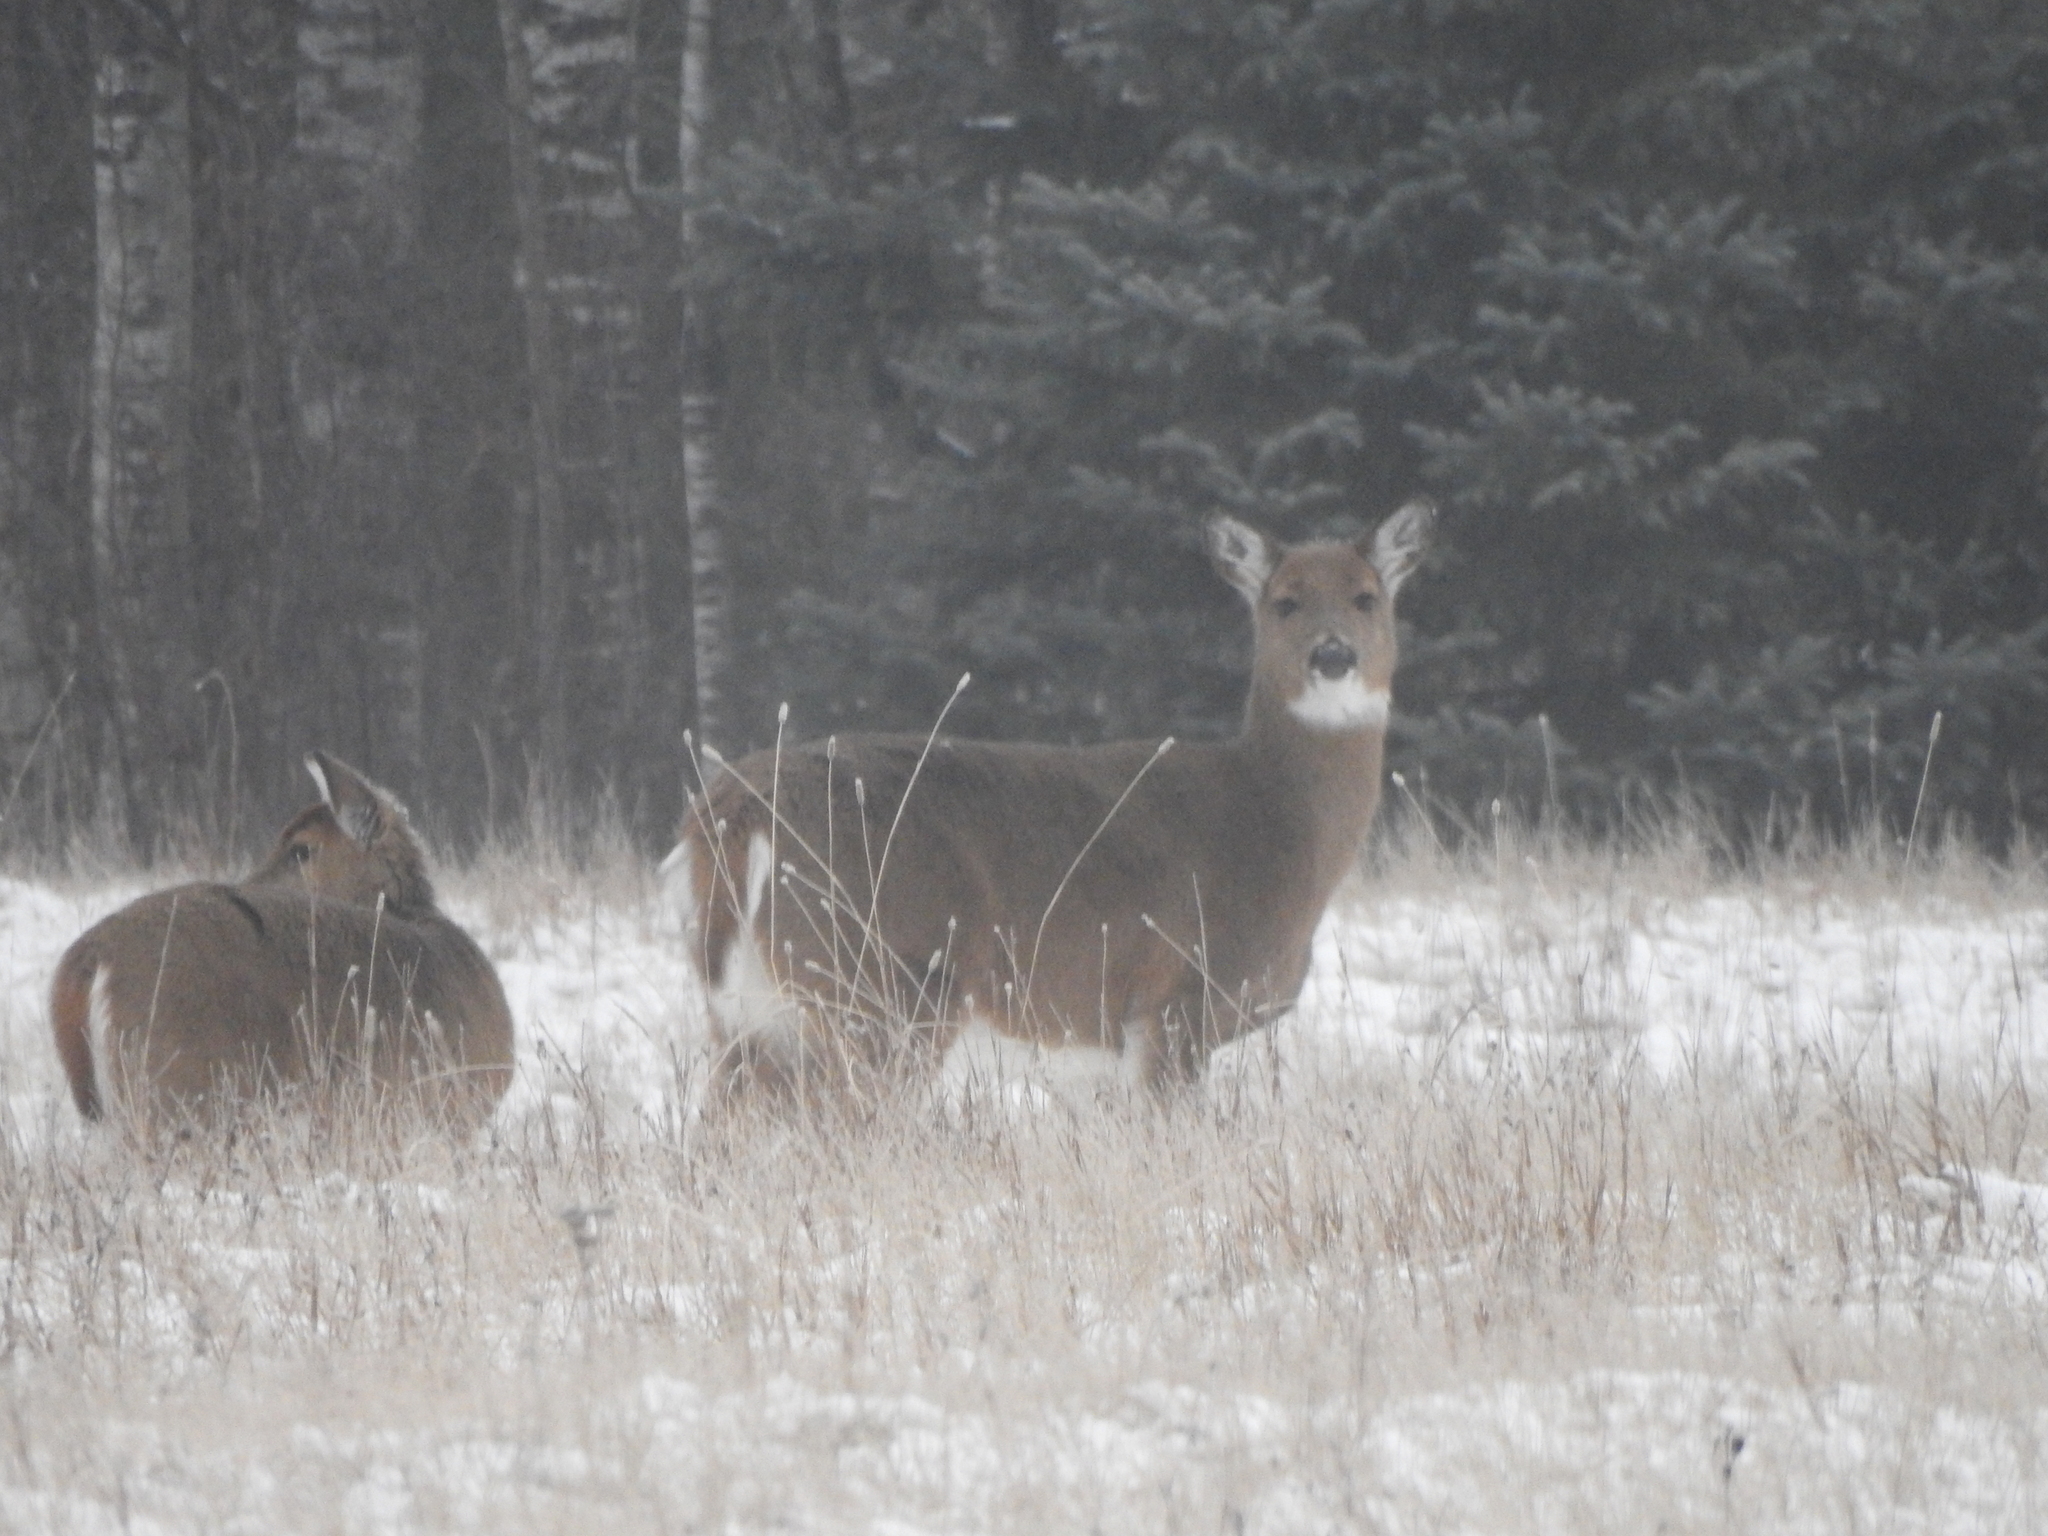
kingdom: Animalia
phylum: Chordata
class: Mammalia
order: Artiodactyla
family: Cervidae
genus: Odocoileus
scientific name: Odocoileus virginianus
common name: White-tailed deer
